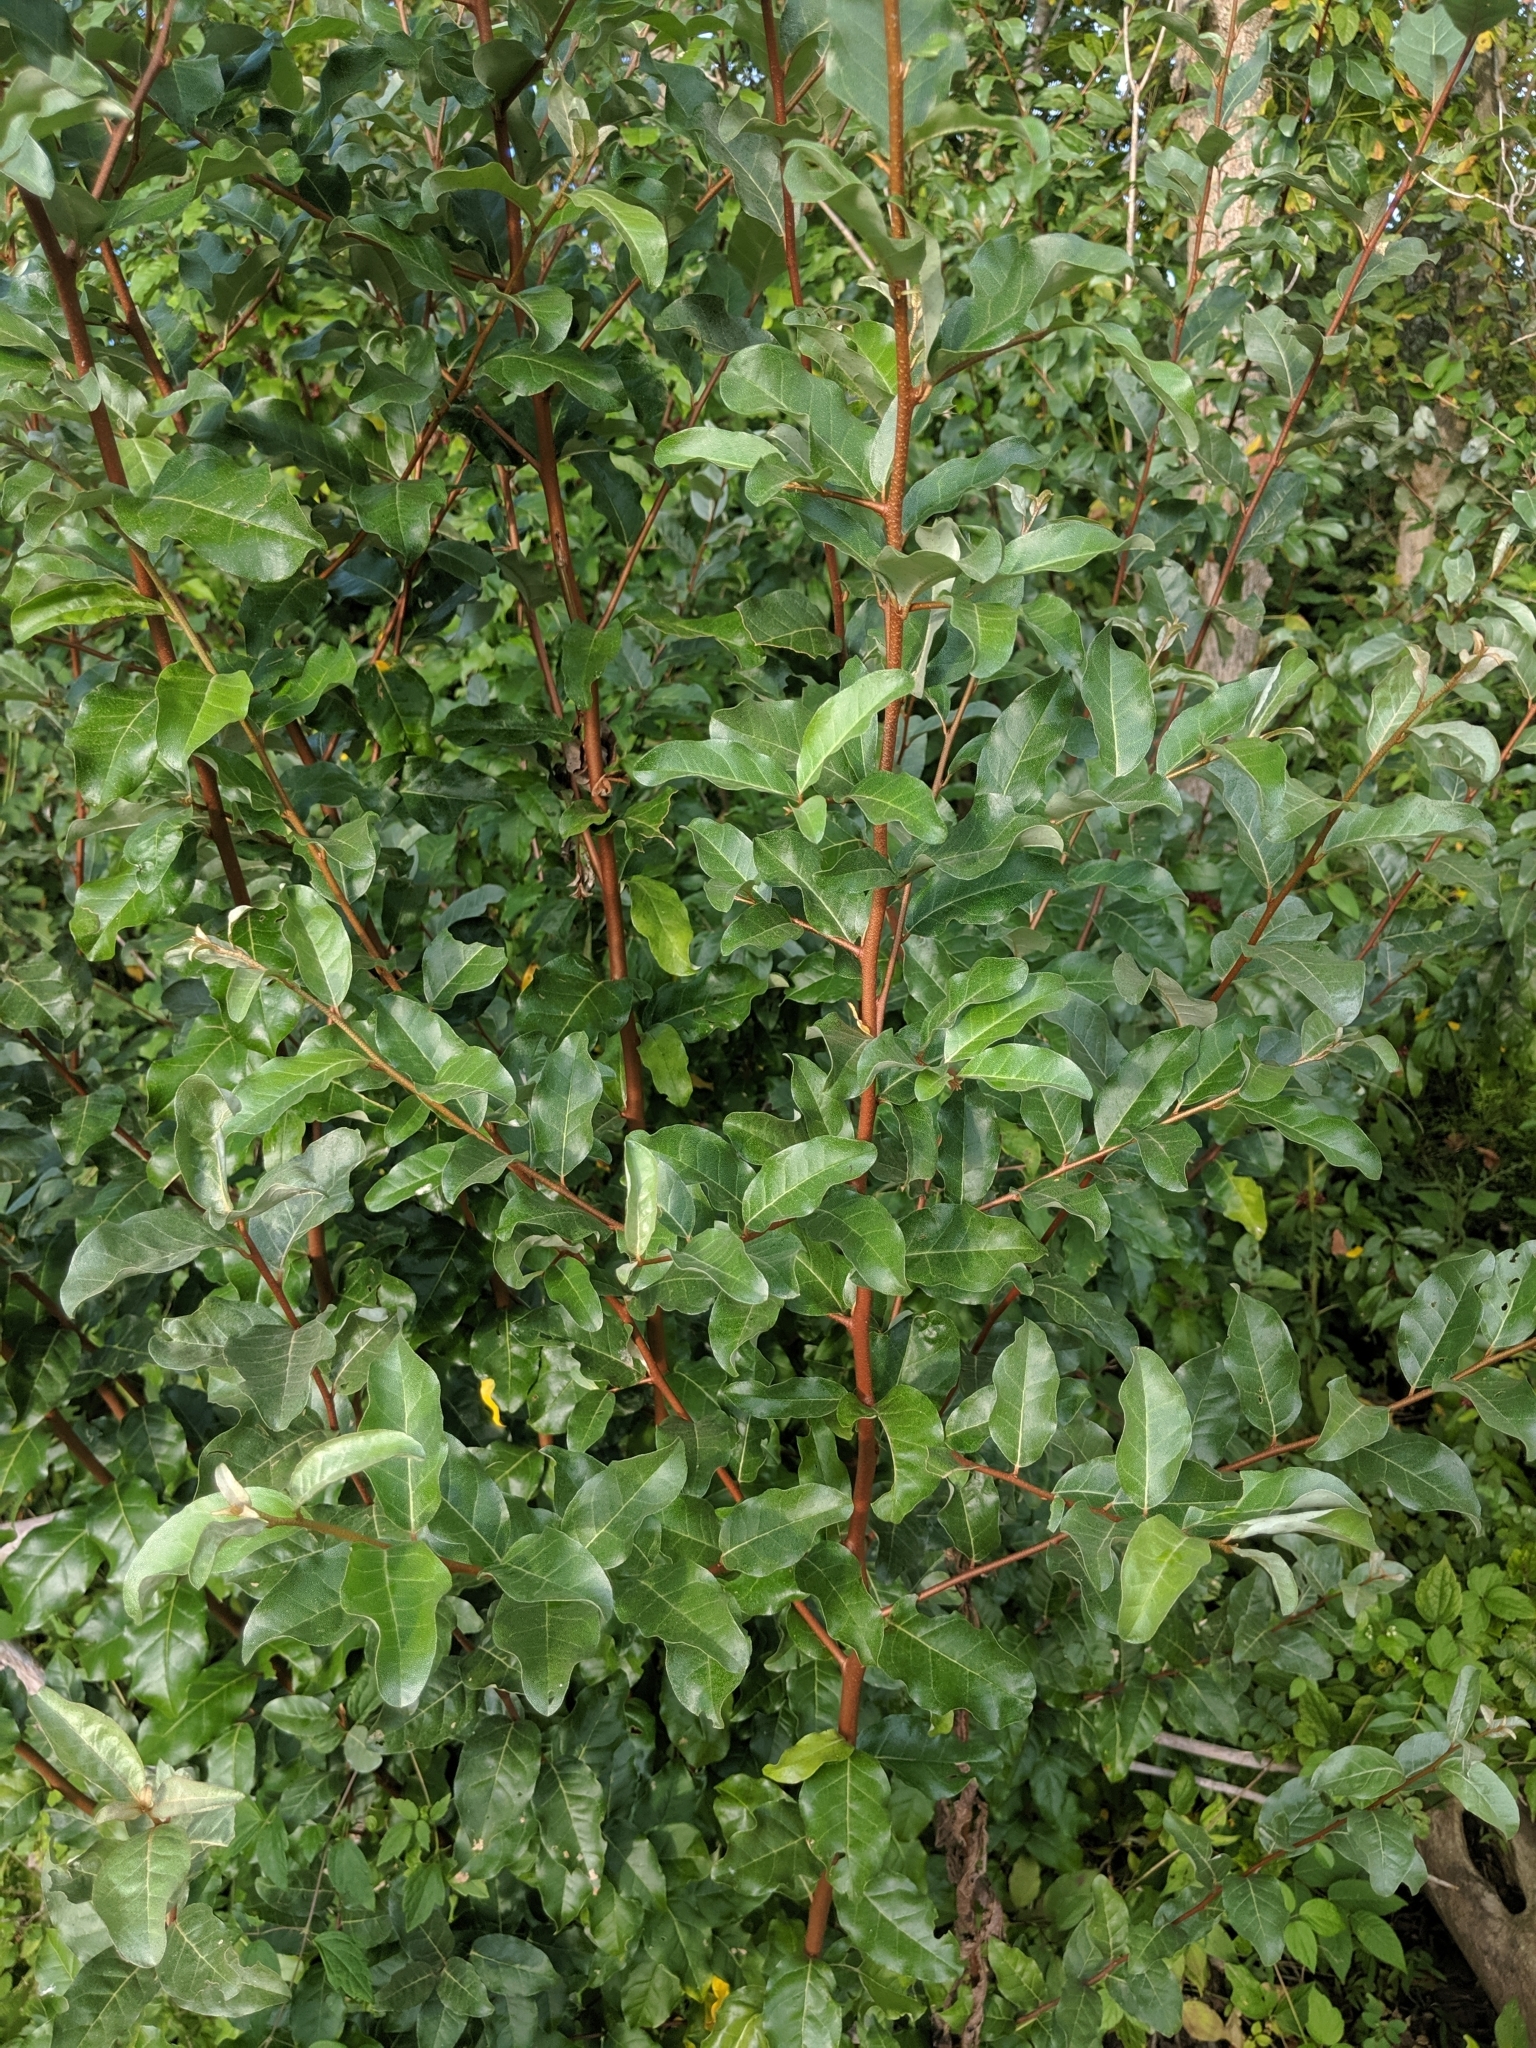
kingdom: Plantae
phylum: Tracheophyta
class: Magnoliopsida
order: Rosales
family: Elaeagnaceae
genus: Elaeagnus
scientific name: Elaeagnus umbellata
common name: Autumn olive
